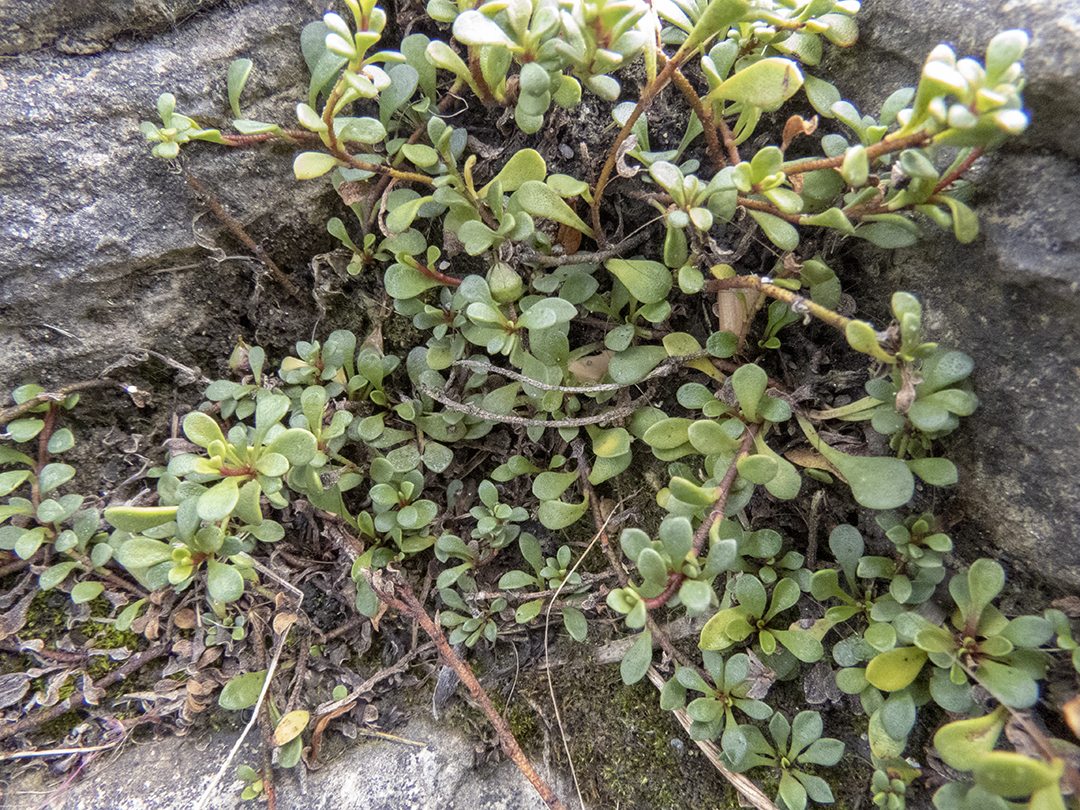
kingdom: Plantae
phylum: Tracheophyta
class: Magnoliopsida
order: Ericales
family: Primulaceae
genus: Samolus
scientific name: Samolus repens
